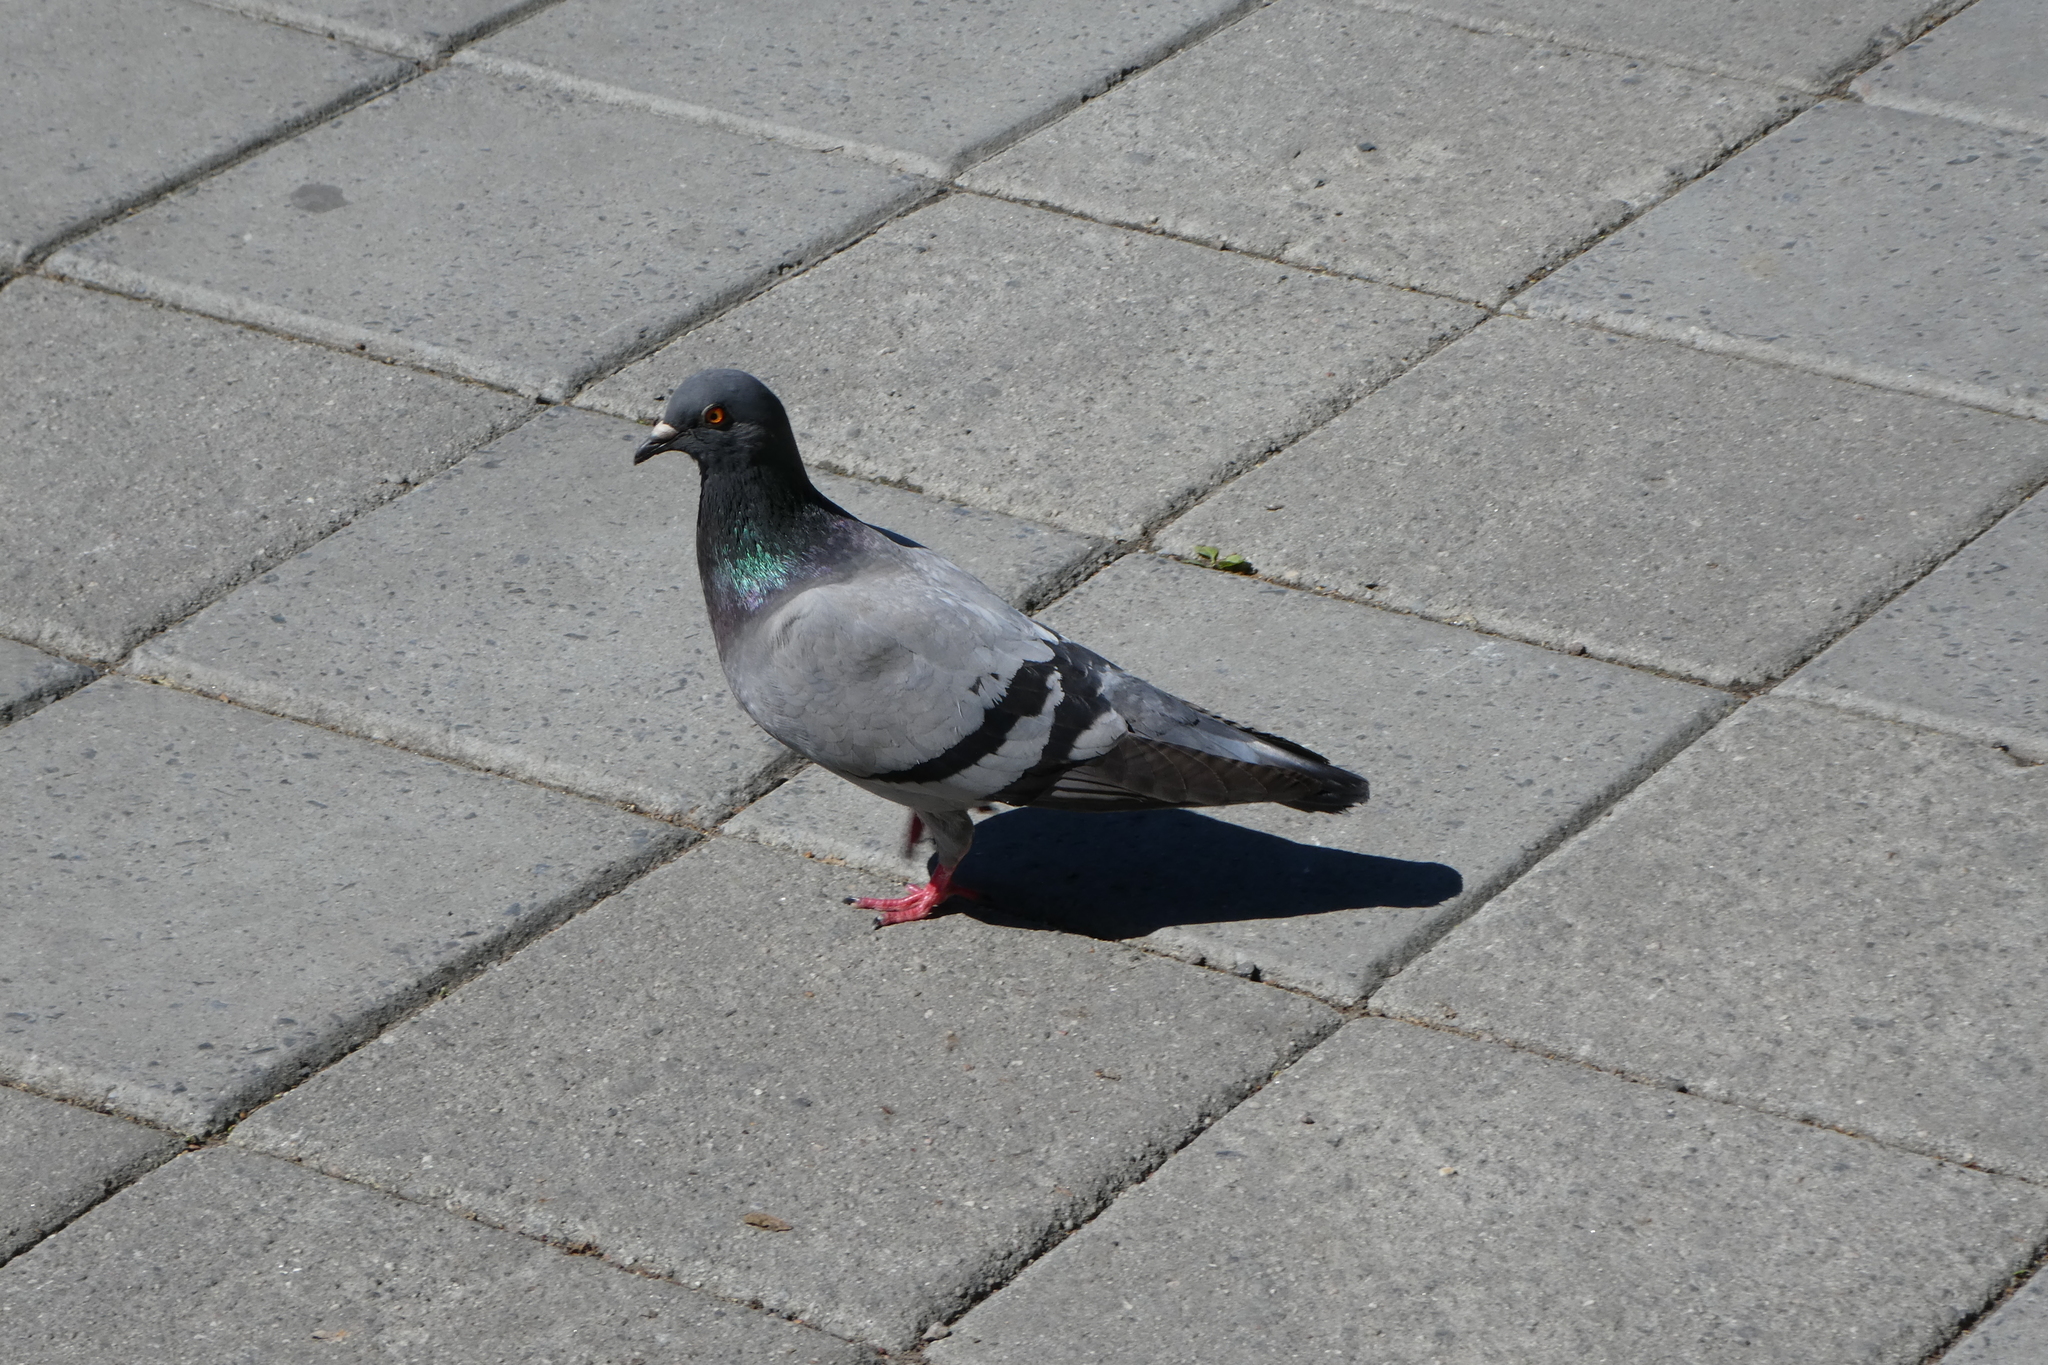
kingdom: Animalia
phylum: Chordata
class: Aves
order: Columbiformes
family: Columbidae
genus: Columba
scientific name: Columba livia
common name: Rock pigeon
